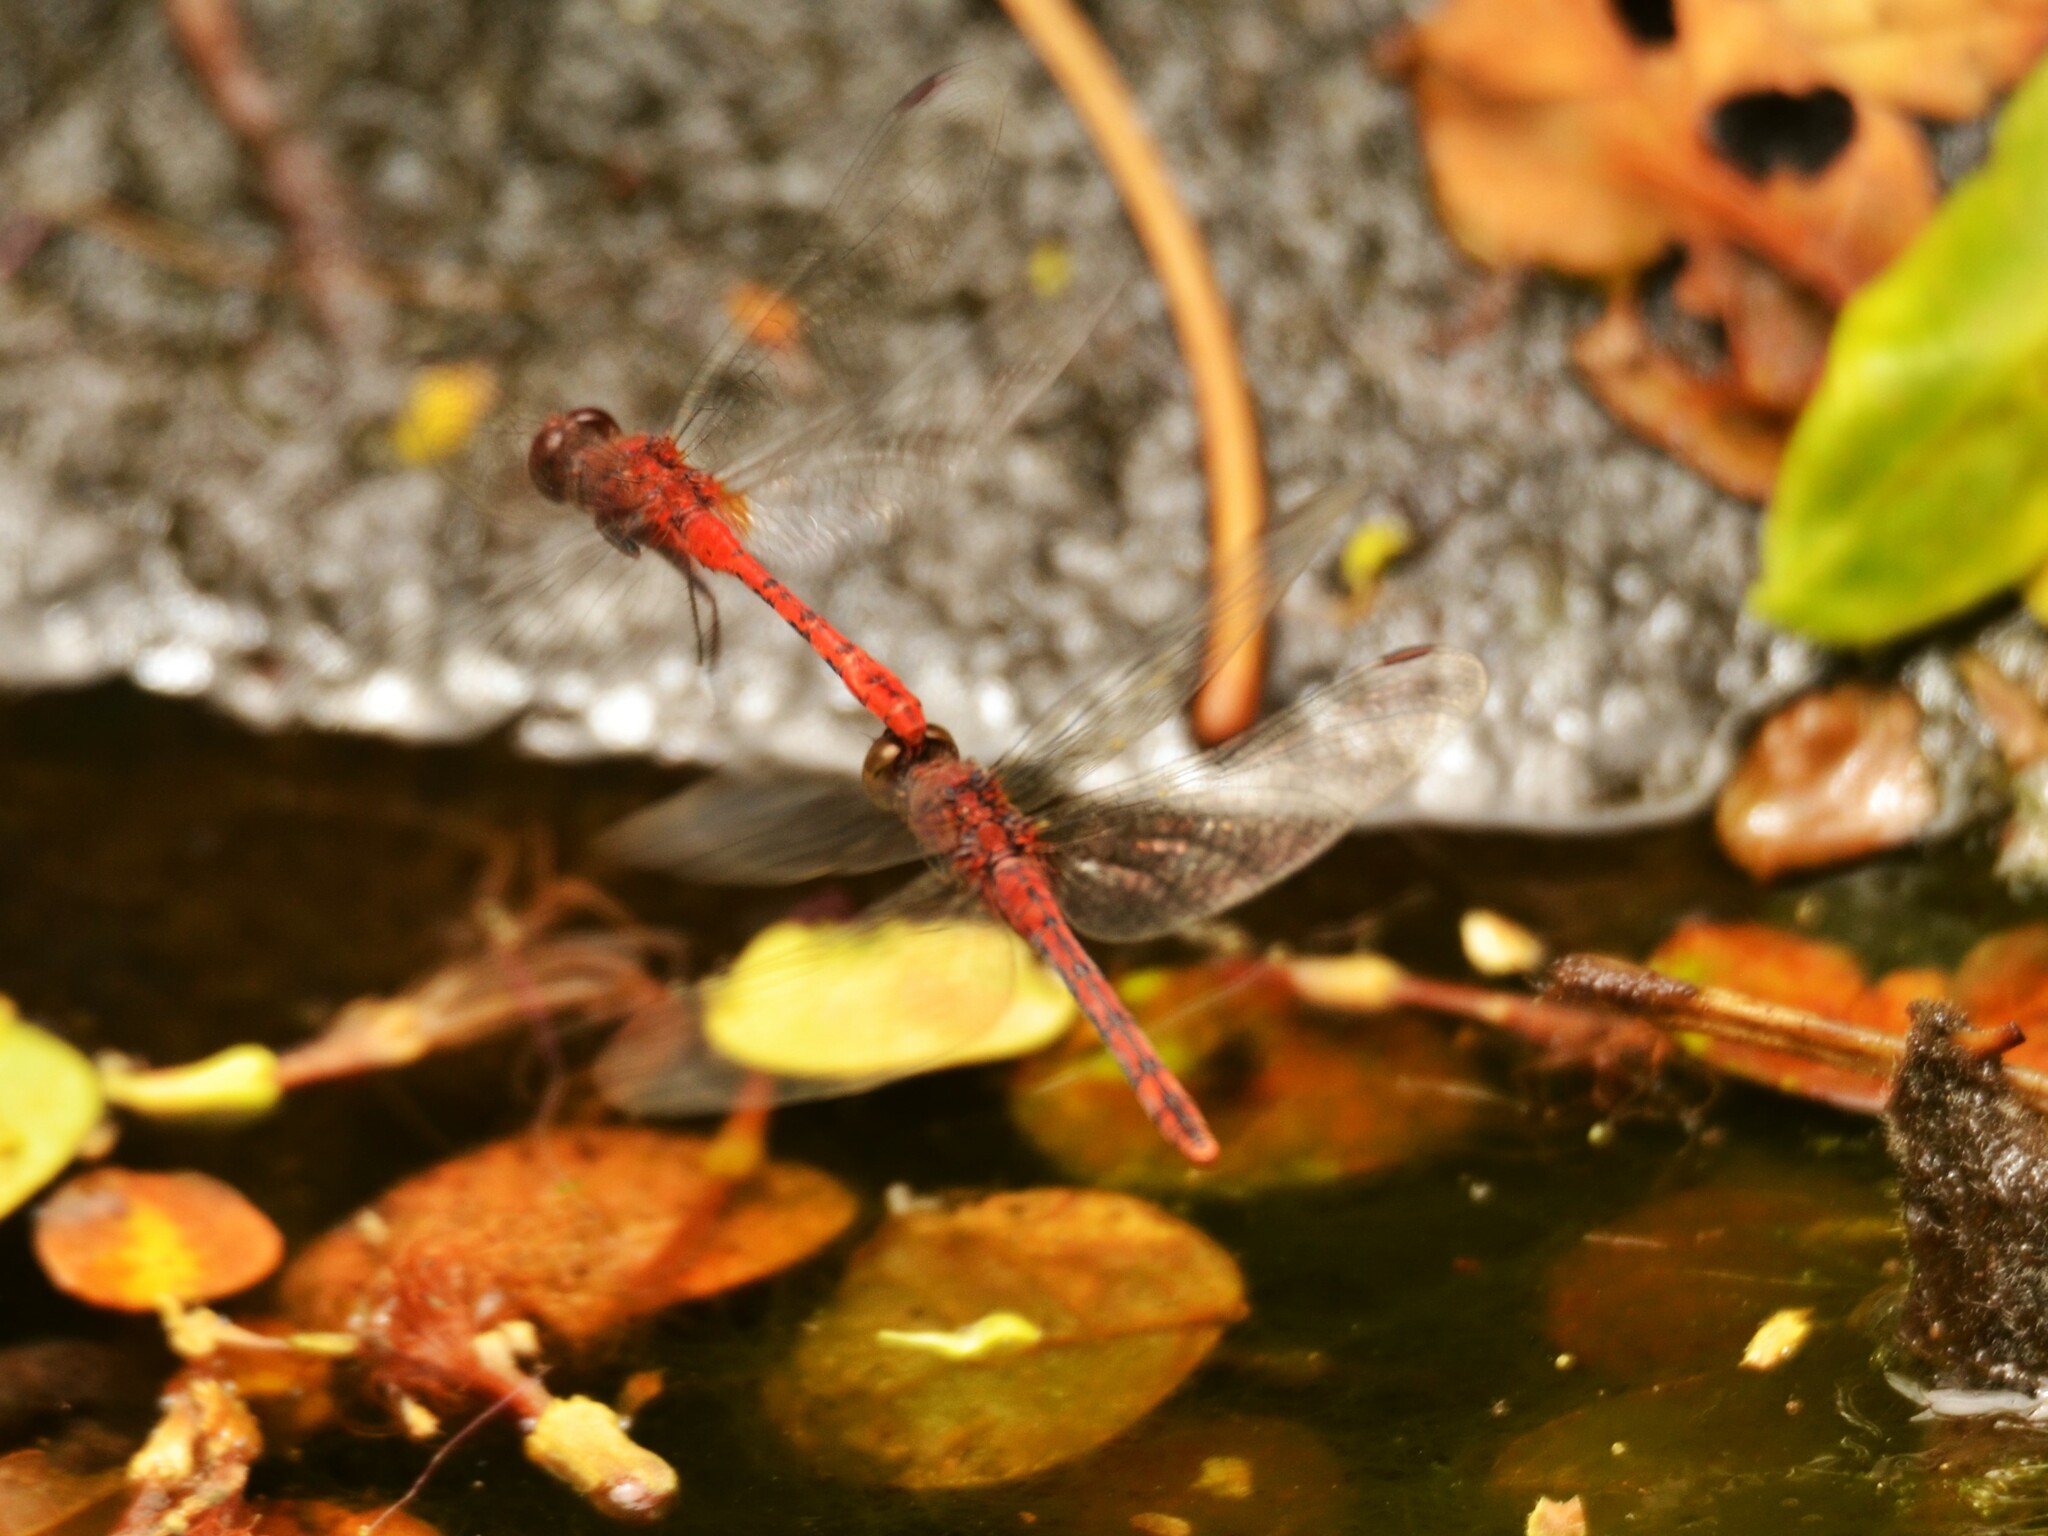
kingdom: Animalia
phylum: Arthropoda
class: Insecta
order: Odonata
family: Libellulidae
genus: Diplacodes
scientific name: Diplacodes bipunctata
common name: Red percher dragonfly
